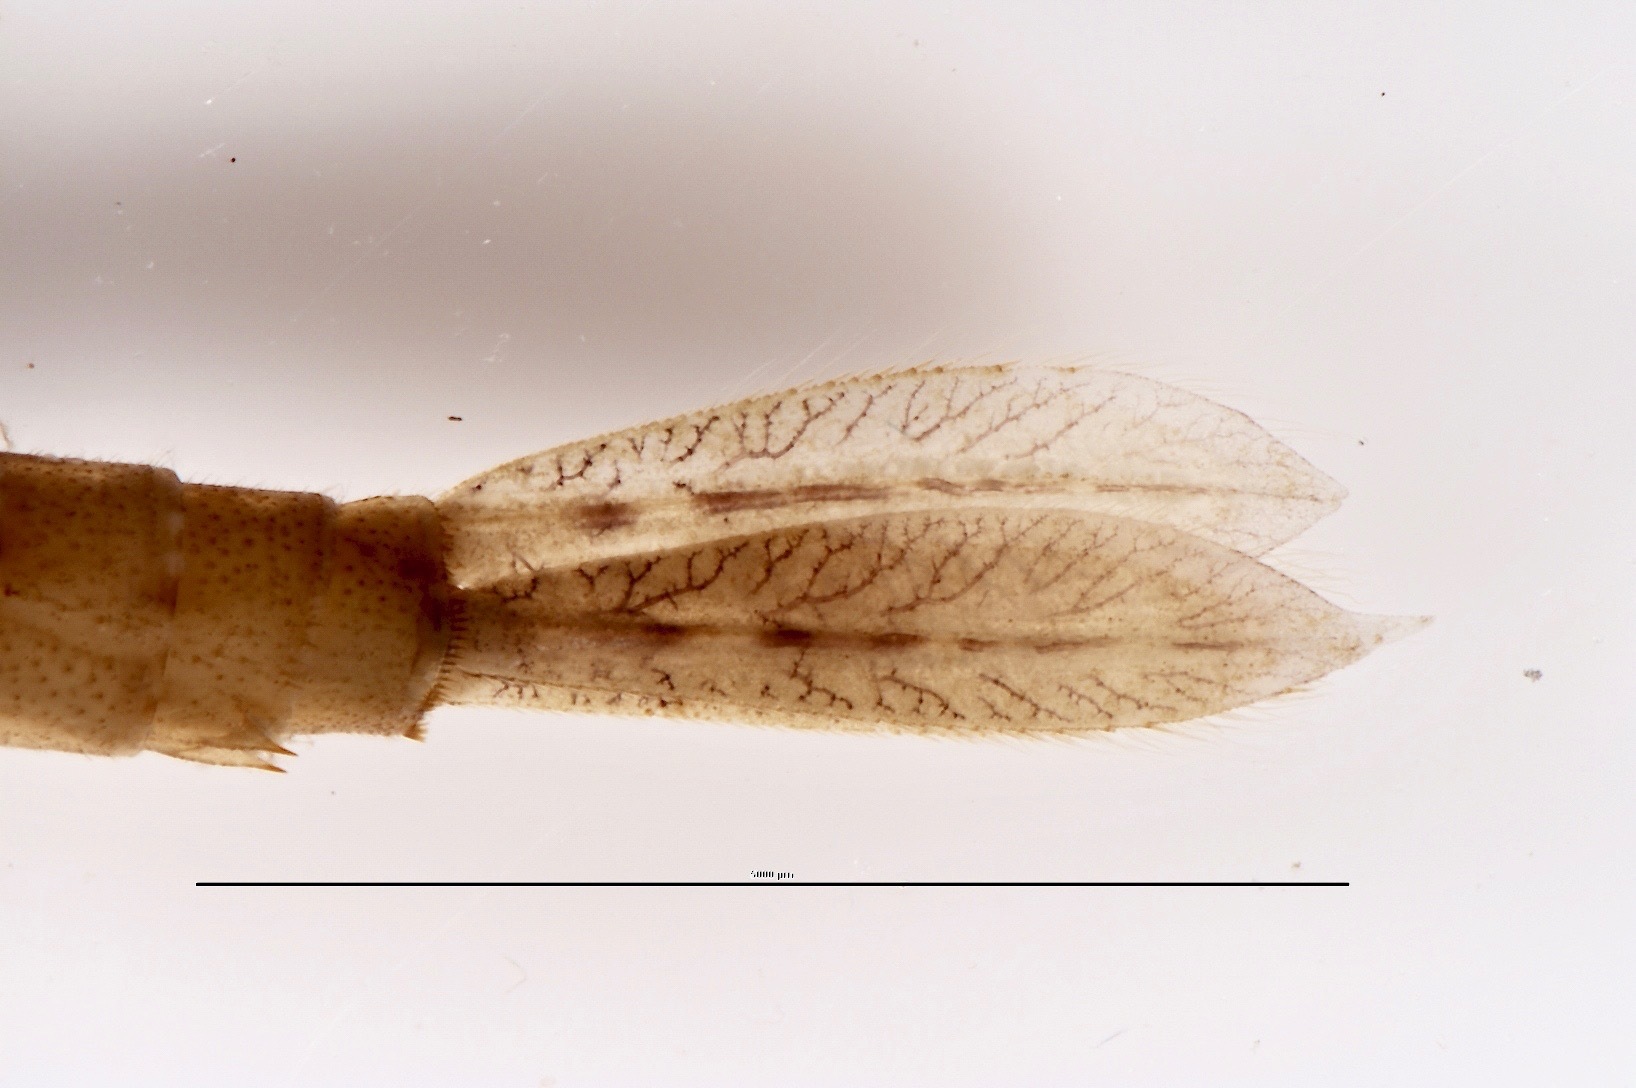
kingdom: Animalia
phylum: Arthropoda
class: Insecta
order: Odonata
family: Coenagrionidae
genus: Xanthocnemis
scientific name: Xanthocnemis zealandica
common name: Common redcoat damselfly
